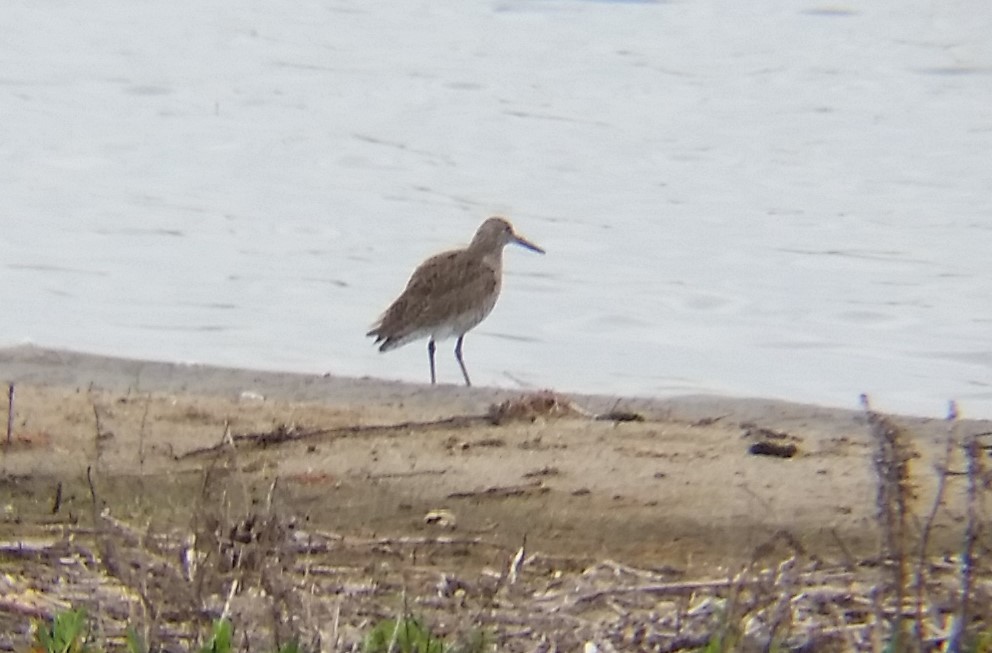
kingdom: Animalia
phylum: Chordata
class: Aves
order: Charadriiformes
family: Scolopacidae
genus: Tringa
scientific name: Tringa semipalmata
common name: Willet
